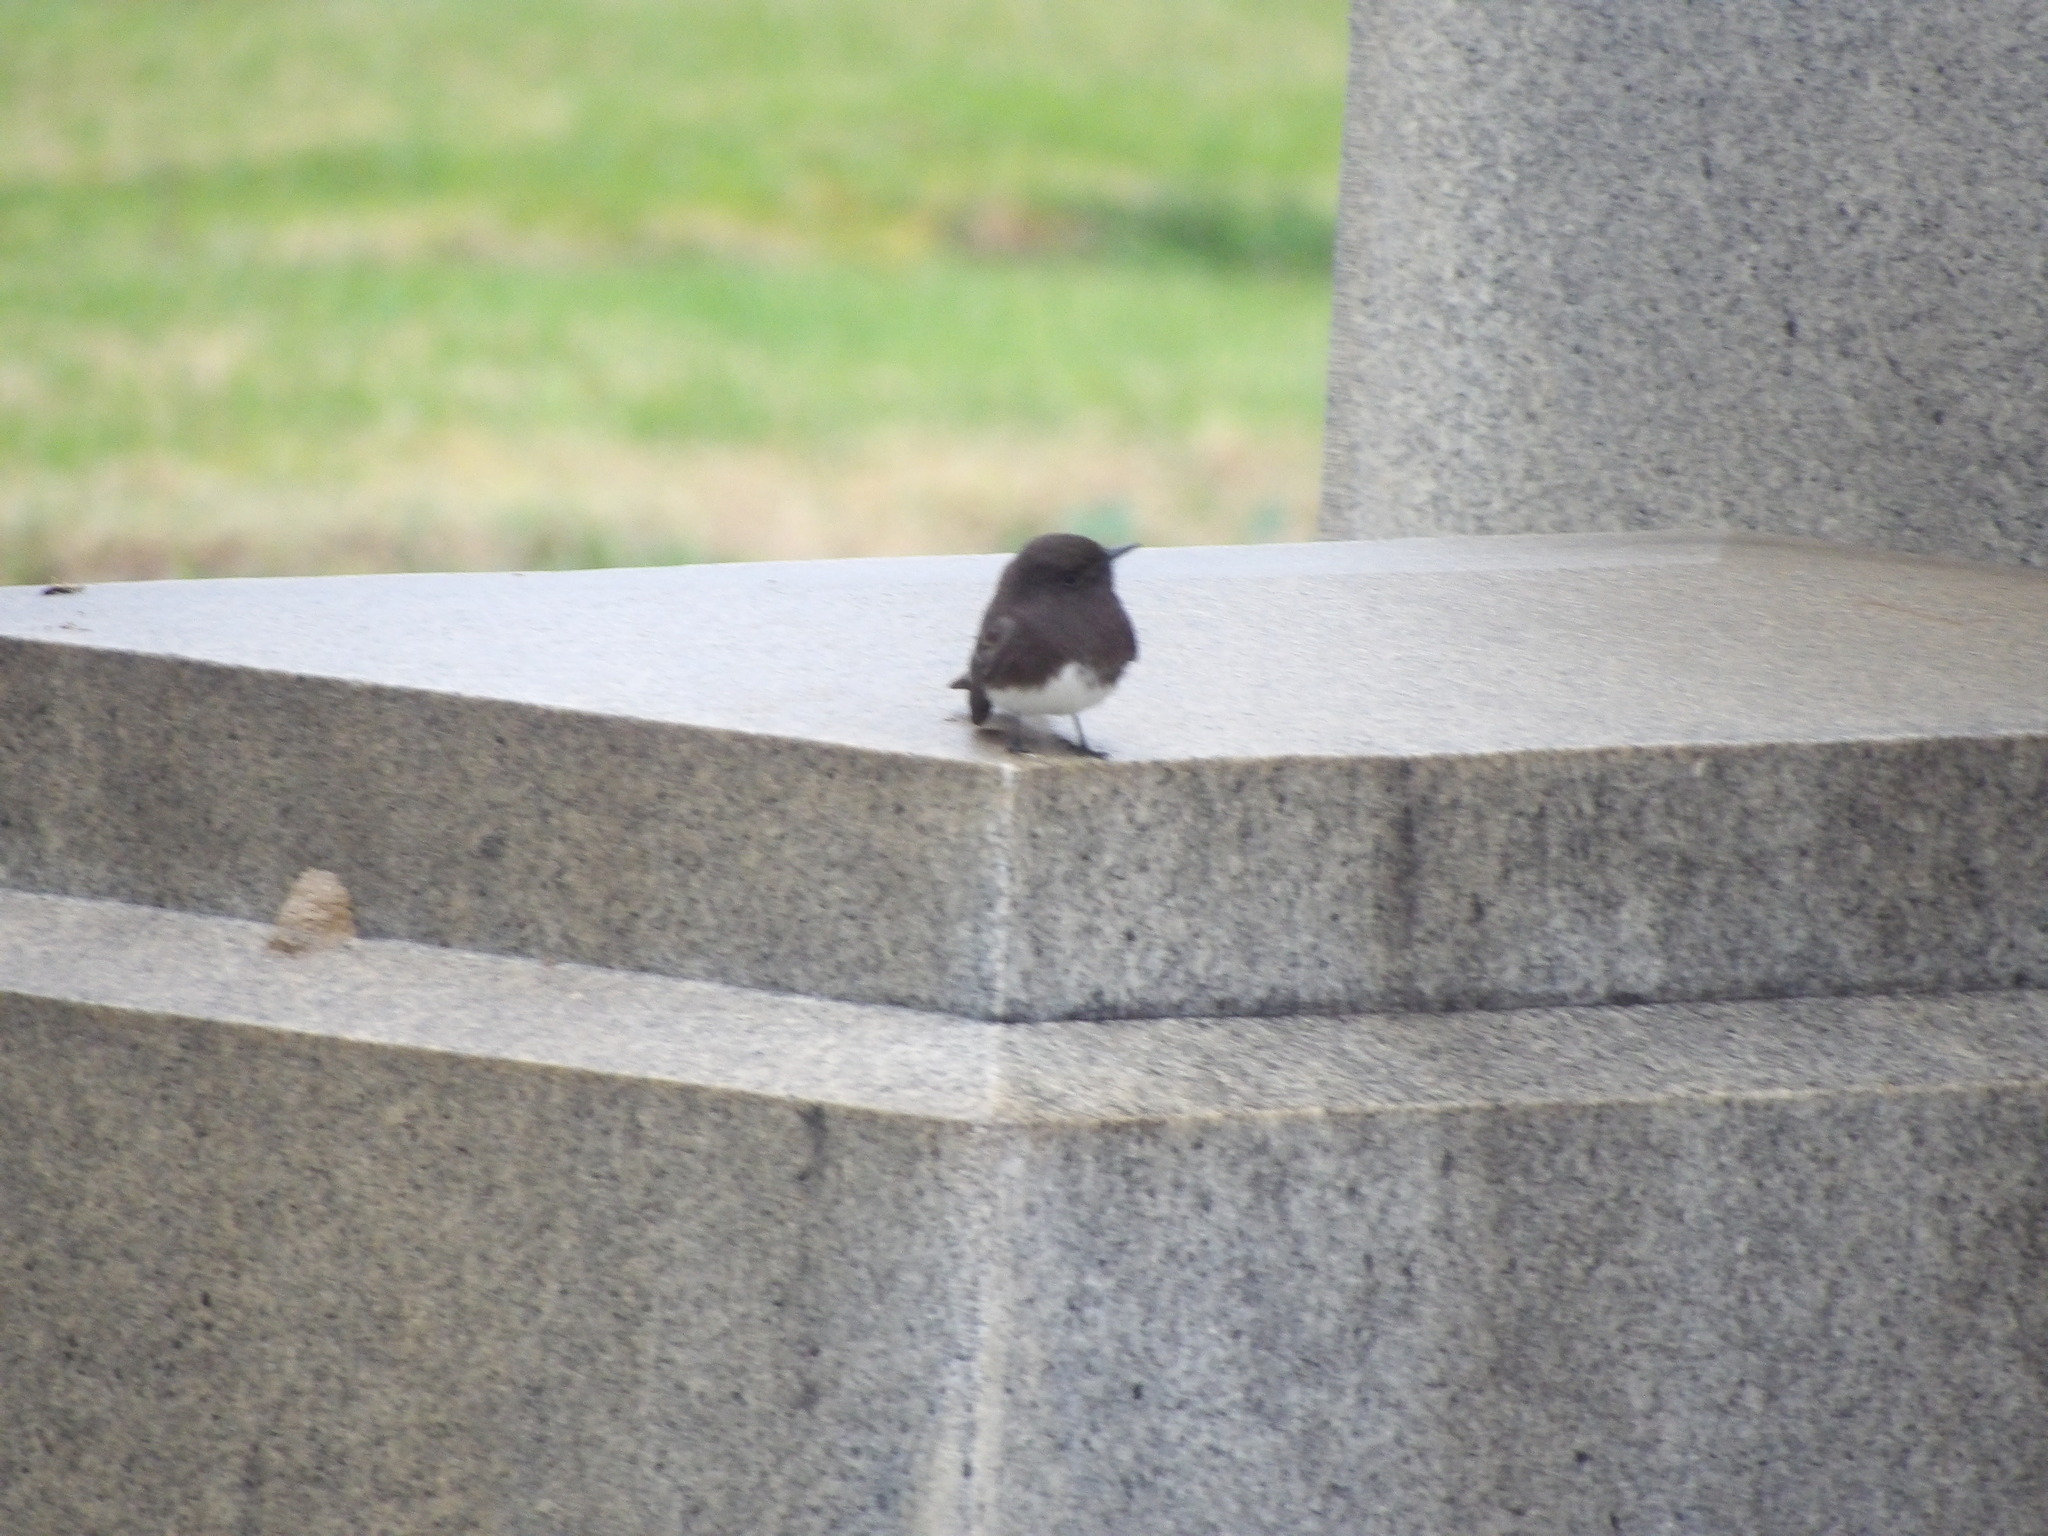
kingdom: Animalia
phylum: Chordata
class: Aves
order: Passeriformes
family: Tyrannidae
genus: Sayornis
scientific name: Sayornis nigricans
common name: Black phoebe
